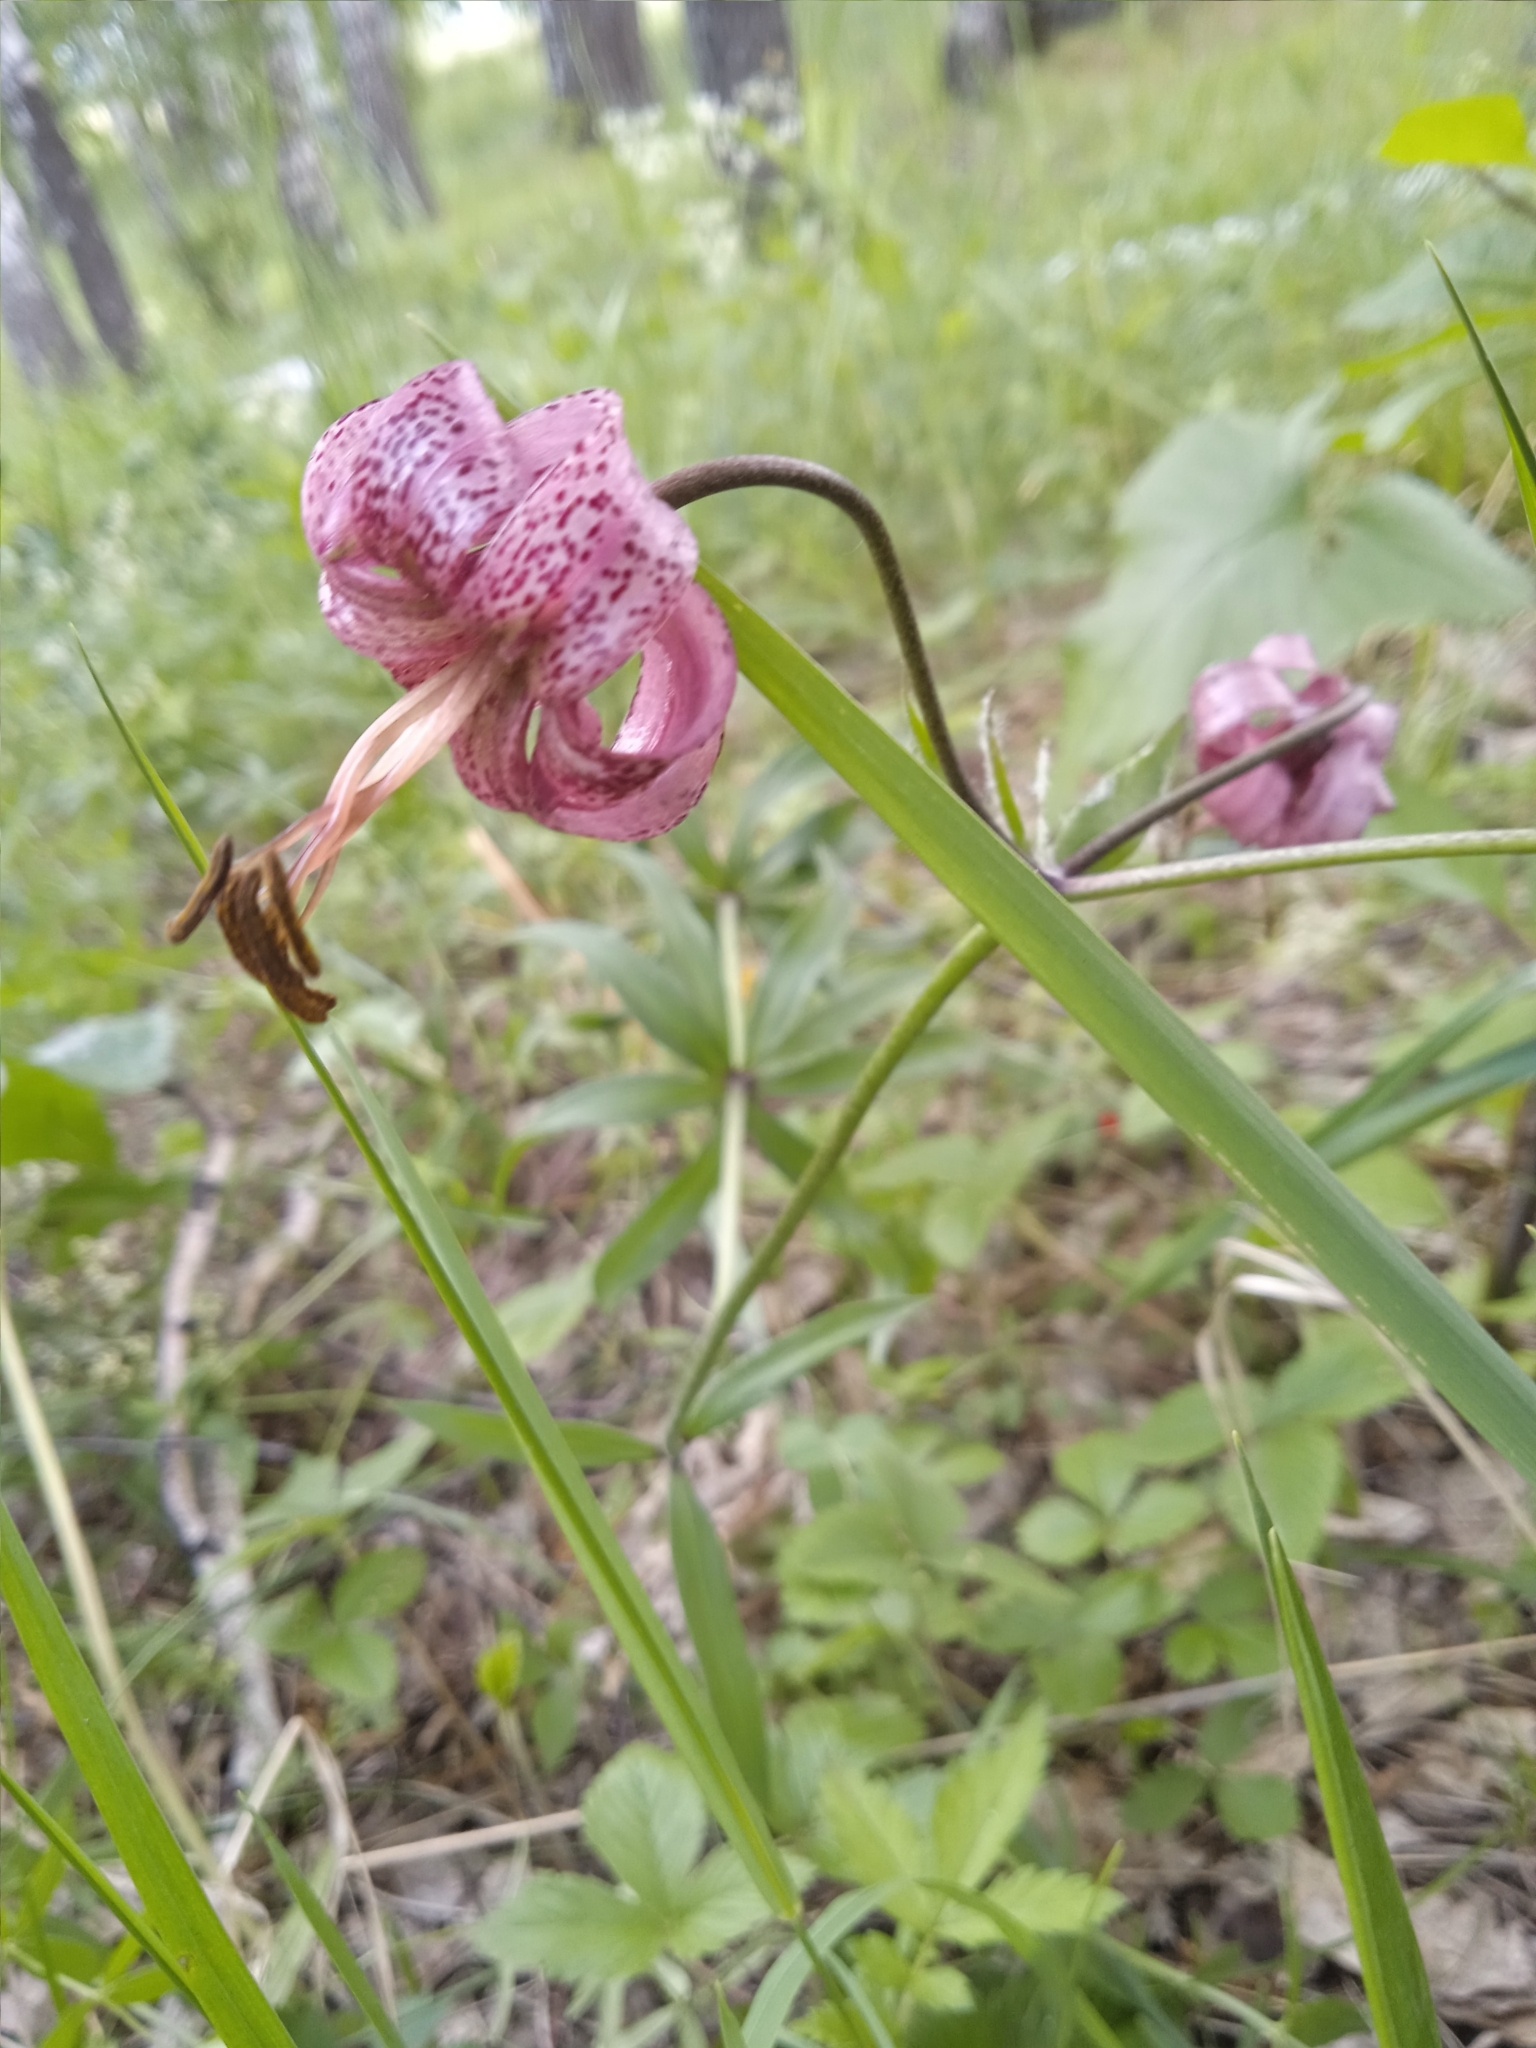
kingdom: Plantae
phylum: Tracheophyta
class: Liliopsida
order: Liliales
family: Liliaceae
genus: Lilium
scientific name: Lilium martagon
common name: Martagon lily
